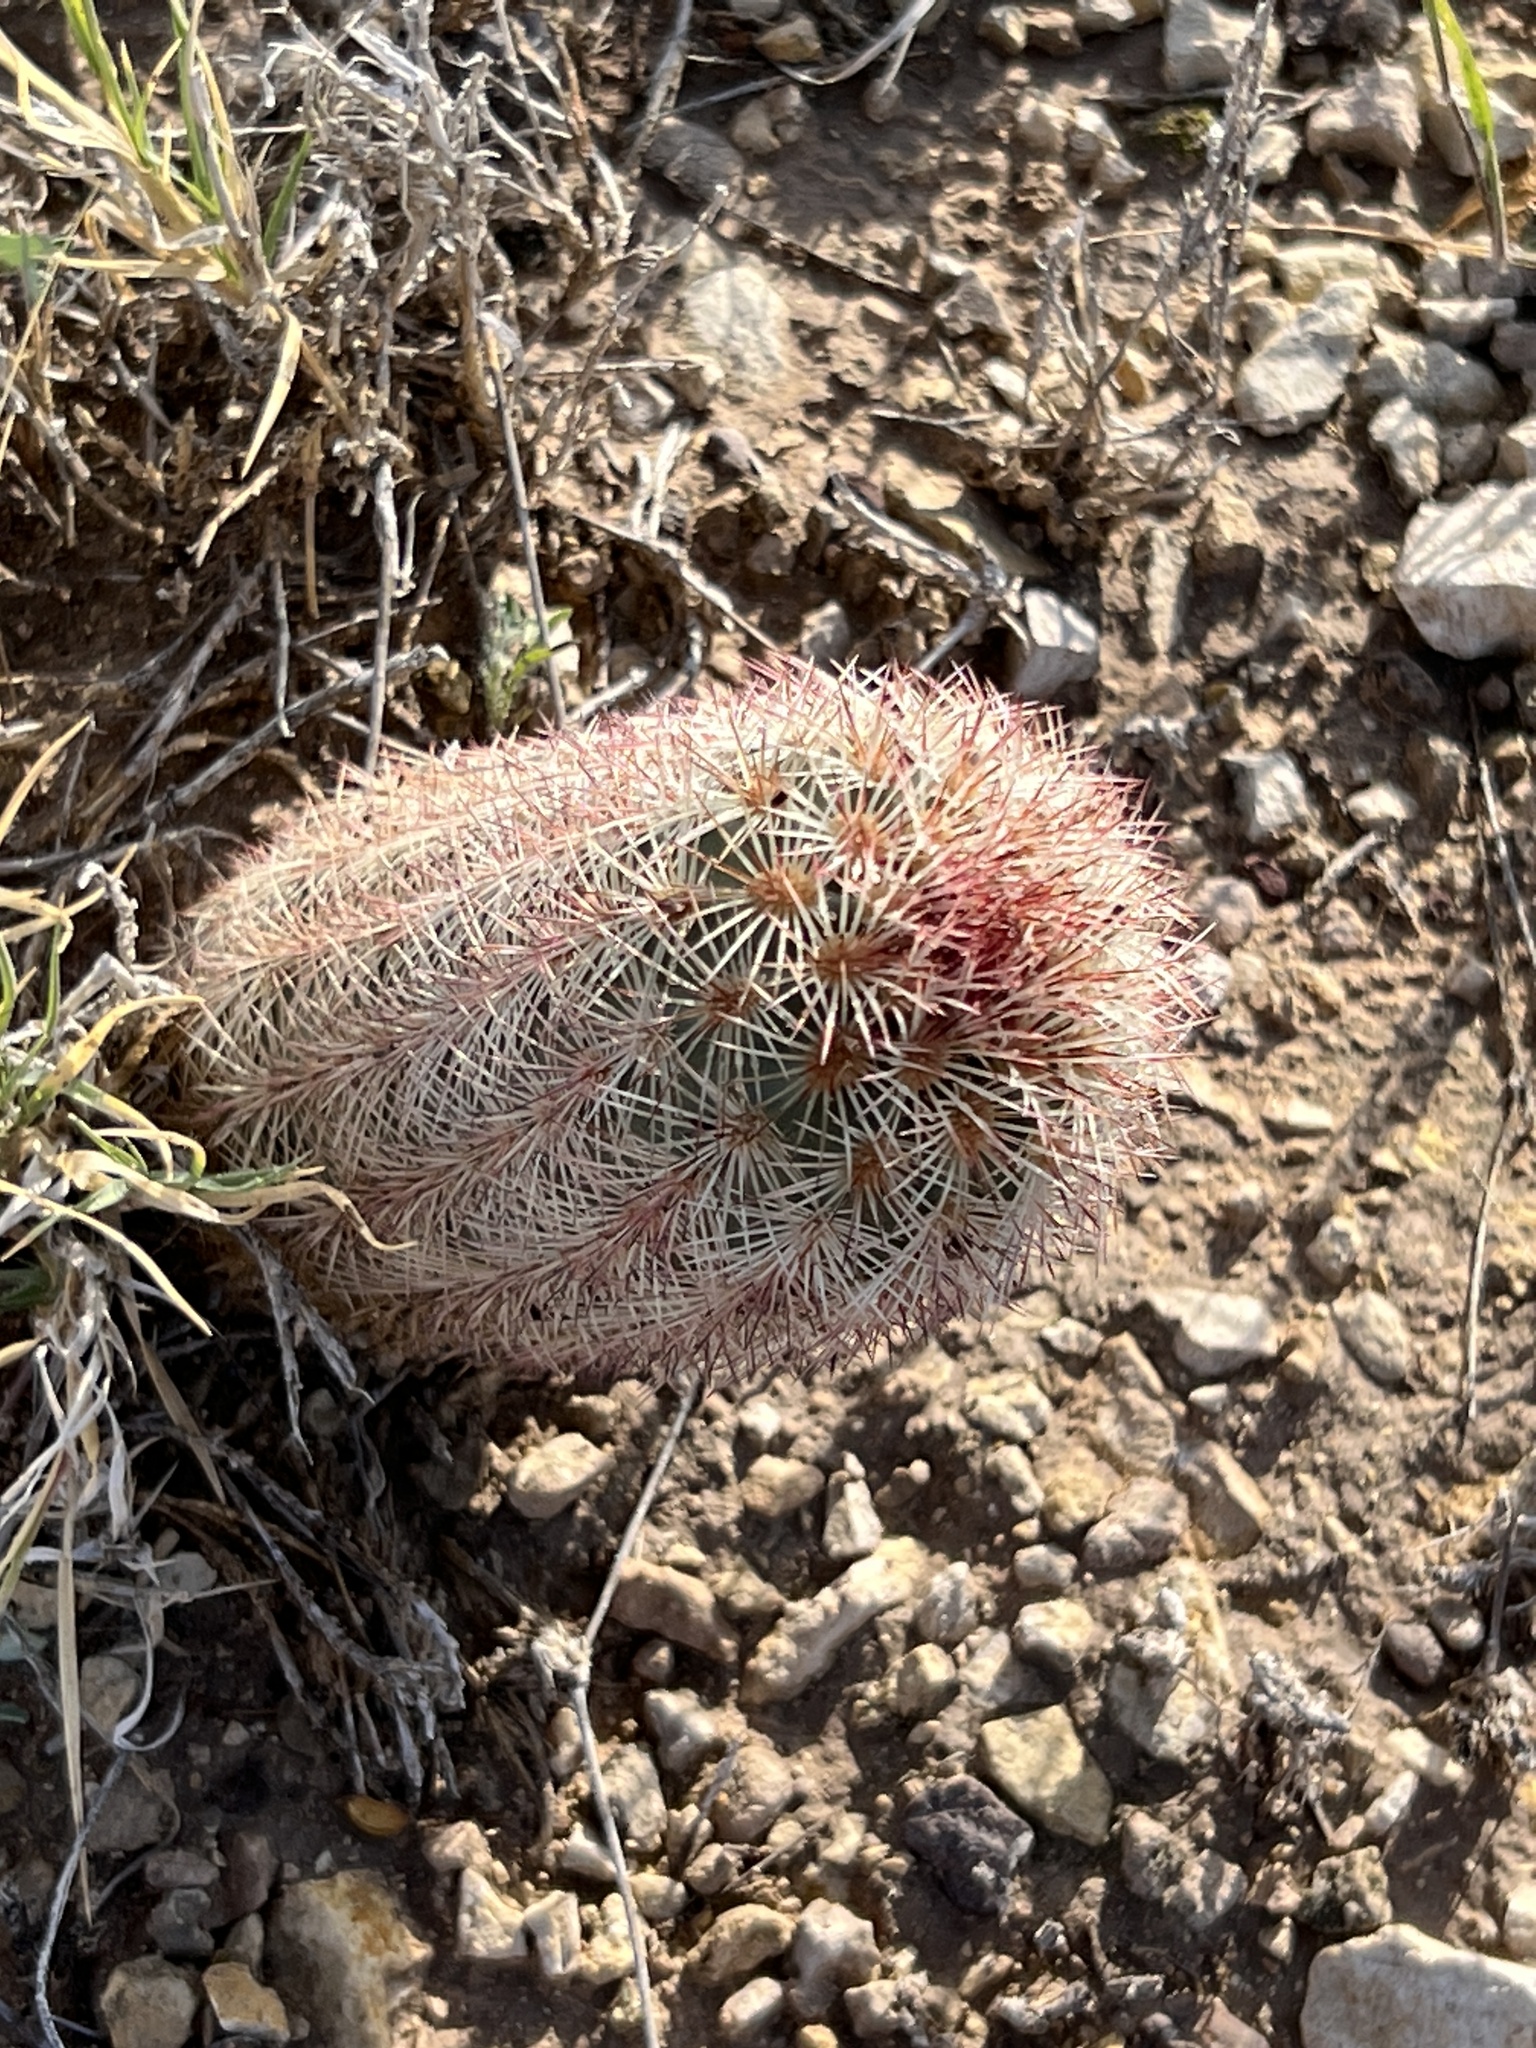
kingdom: Plantae
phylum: Tracheophyta
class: Magnoliopsida
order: Caryophyllales
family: Cactaceae
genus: Echinocereus
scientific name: Echinocereus dasyacanthus
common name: Spiny hedgehog cactus
